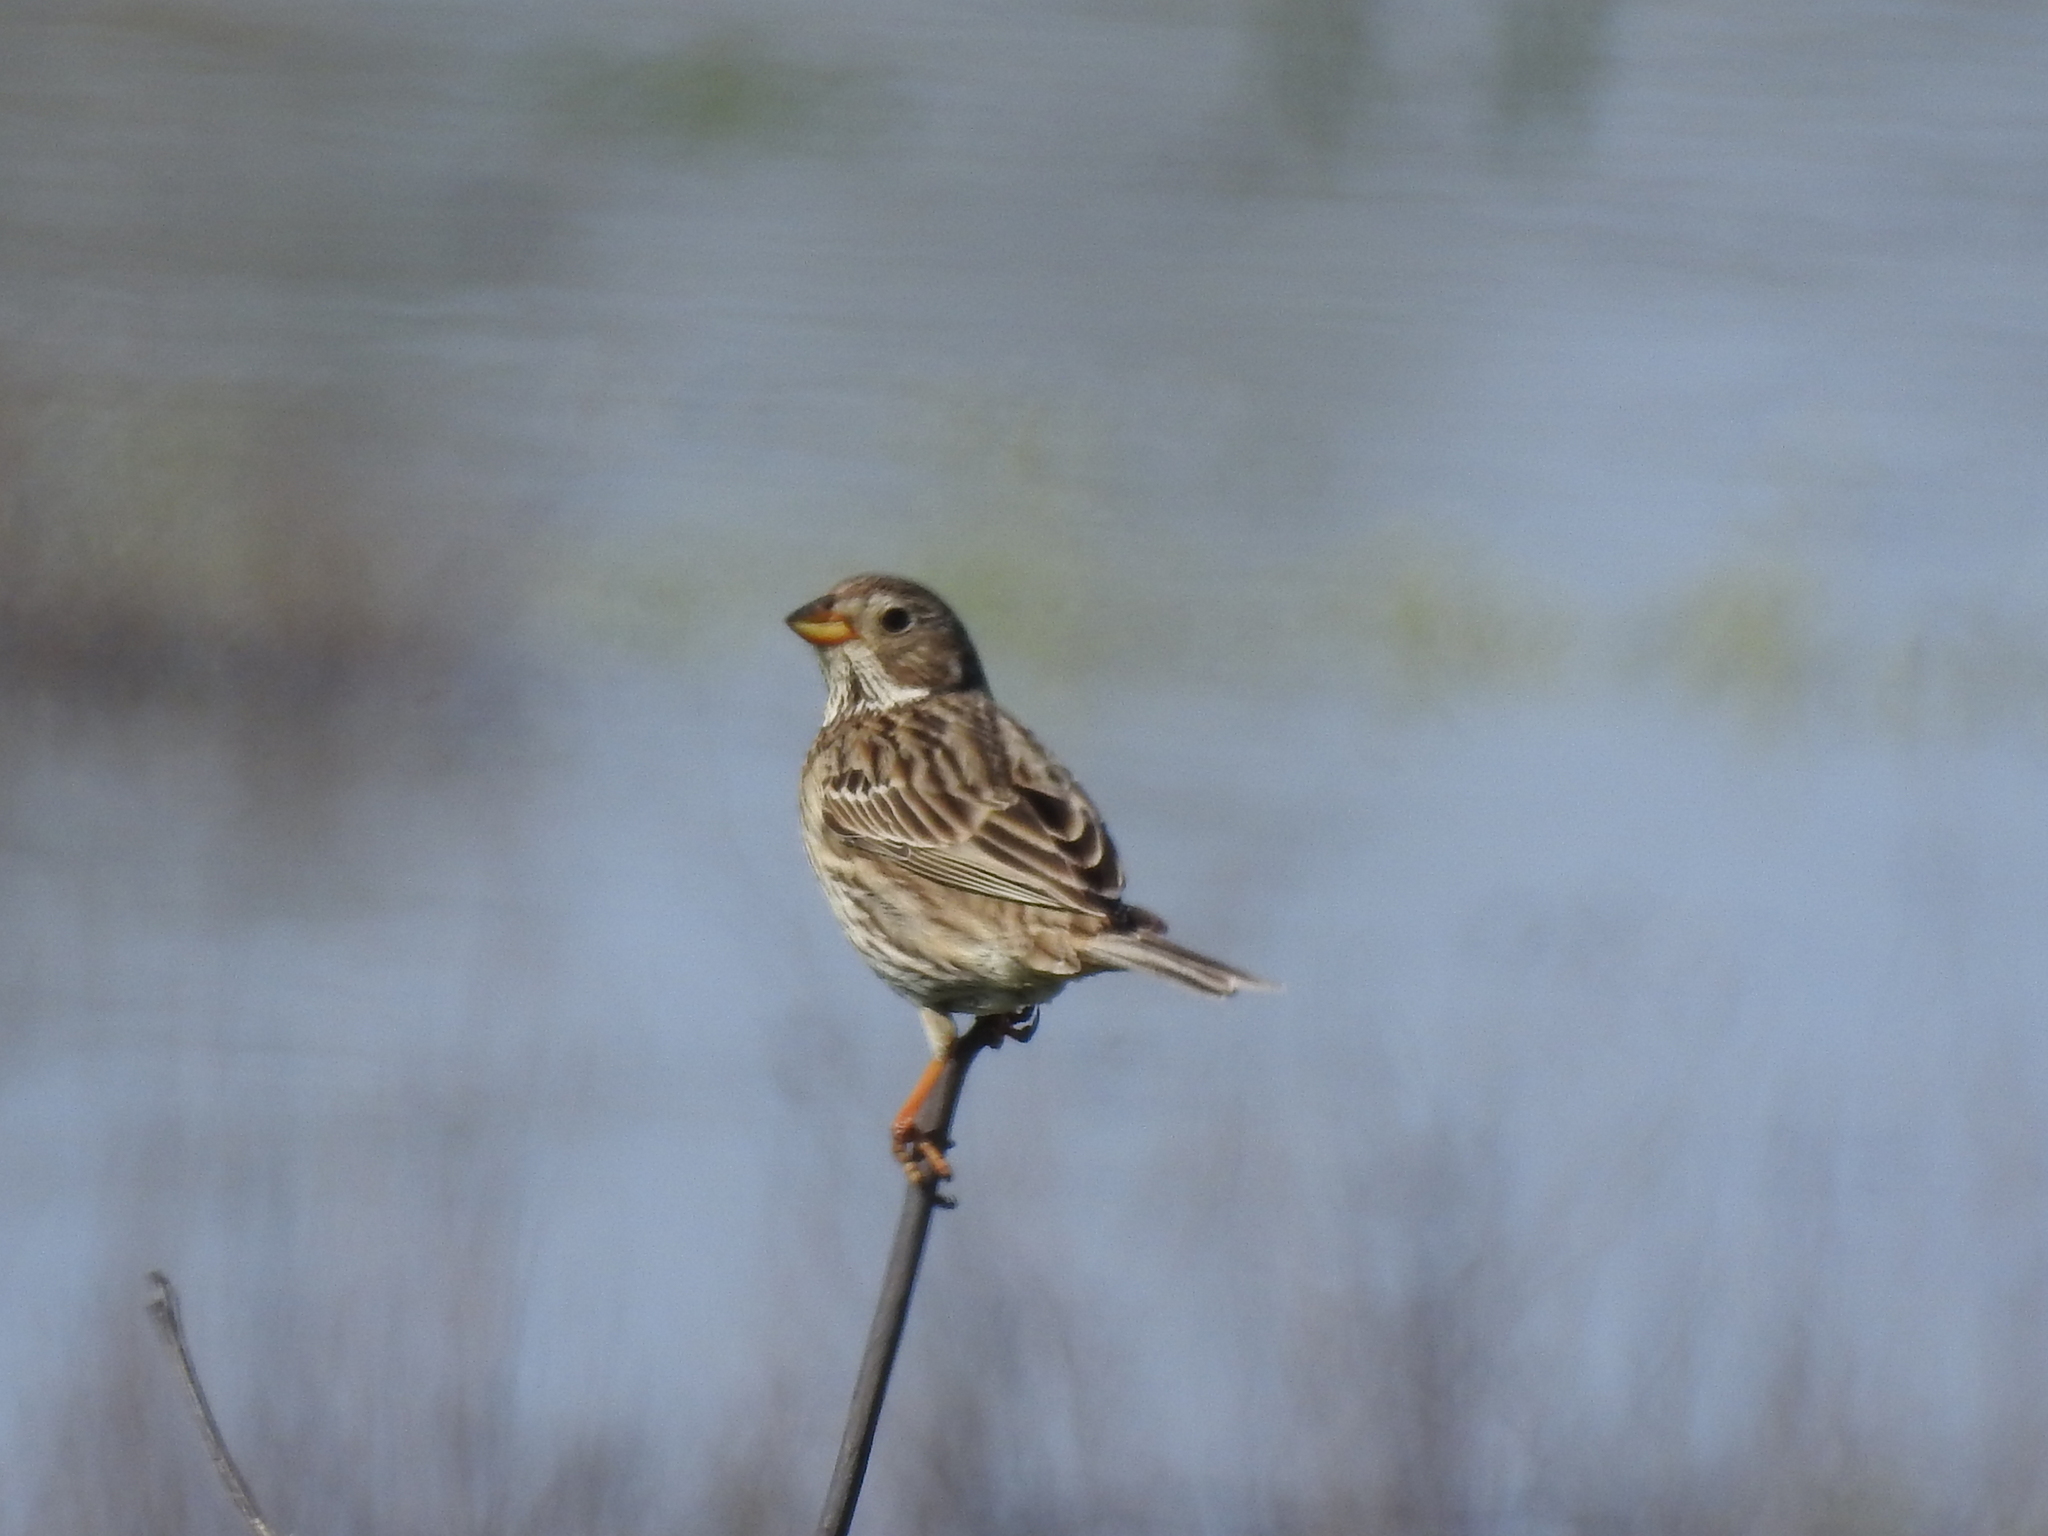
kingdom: Animalia
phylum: Chordata
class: Aves
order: Passeriformes
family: Emberizidae
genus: Emberiza
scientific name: Emberiza calandra
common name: Corn bunting
